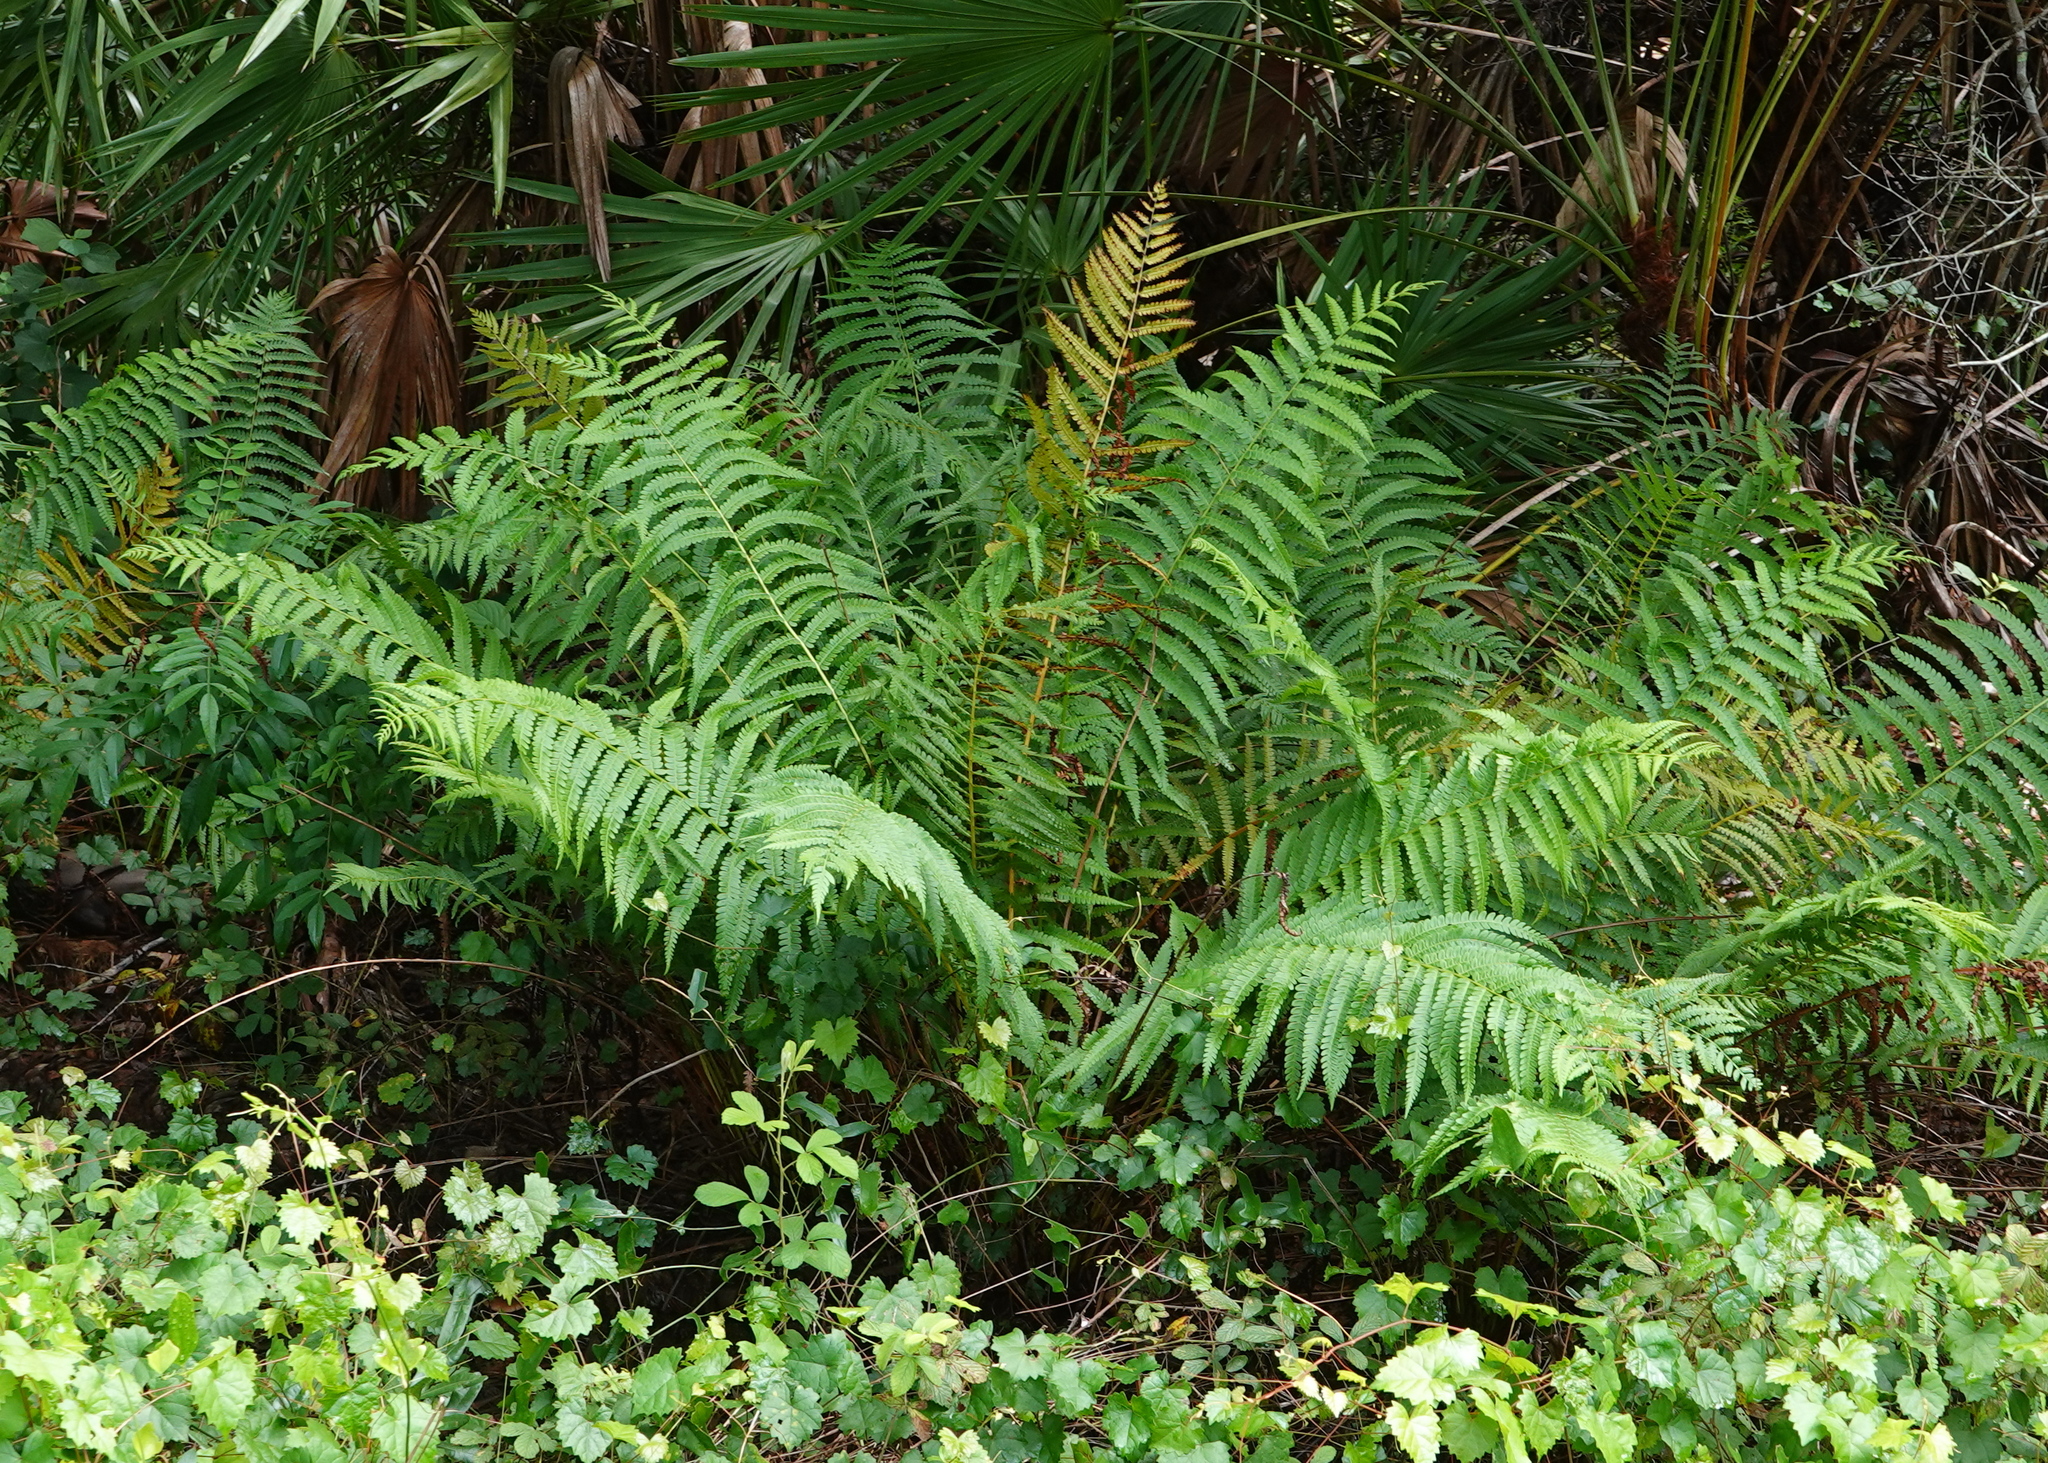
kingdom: Plantae
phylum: Tracheophyta
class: Polypodiopsida
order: Osmundales
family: Osmundaceae
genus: Osmundastrum
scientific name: Osmundastrum cinnamomeum
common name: Cinnamon fern
